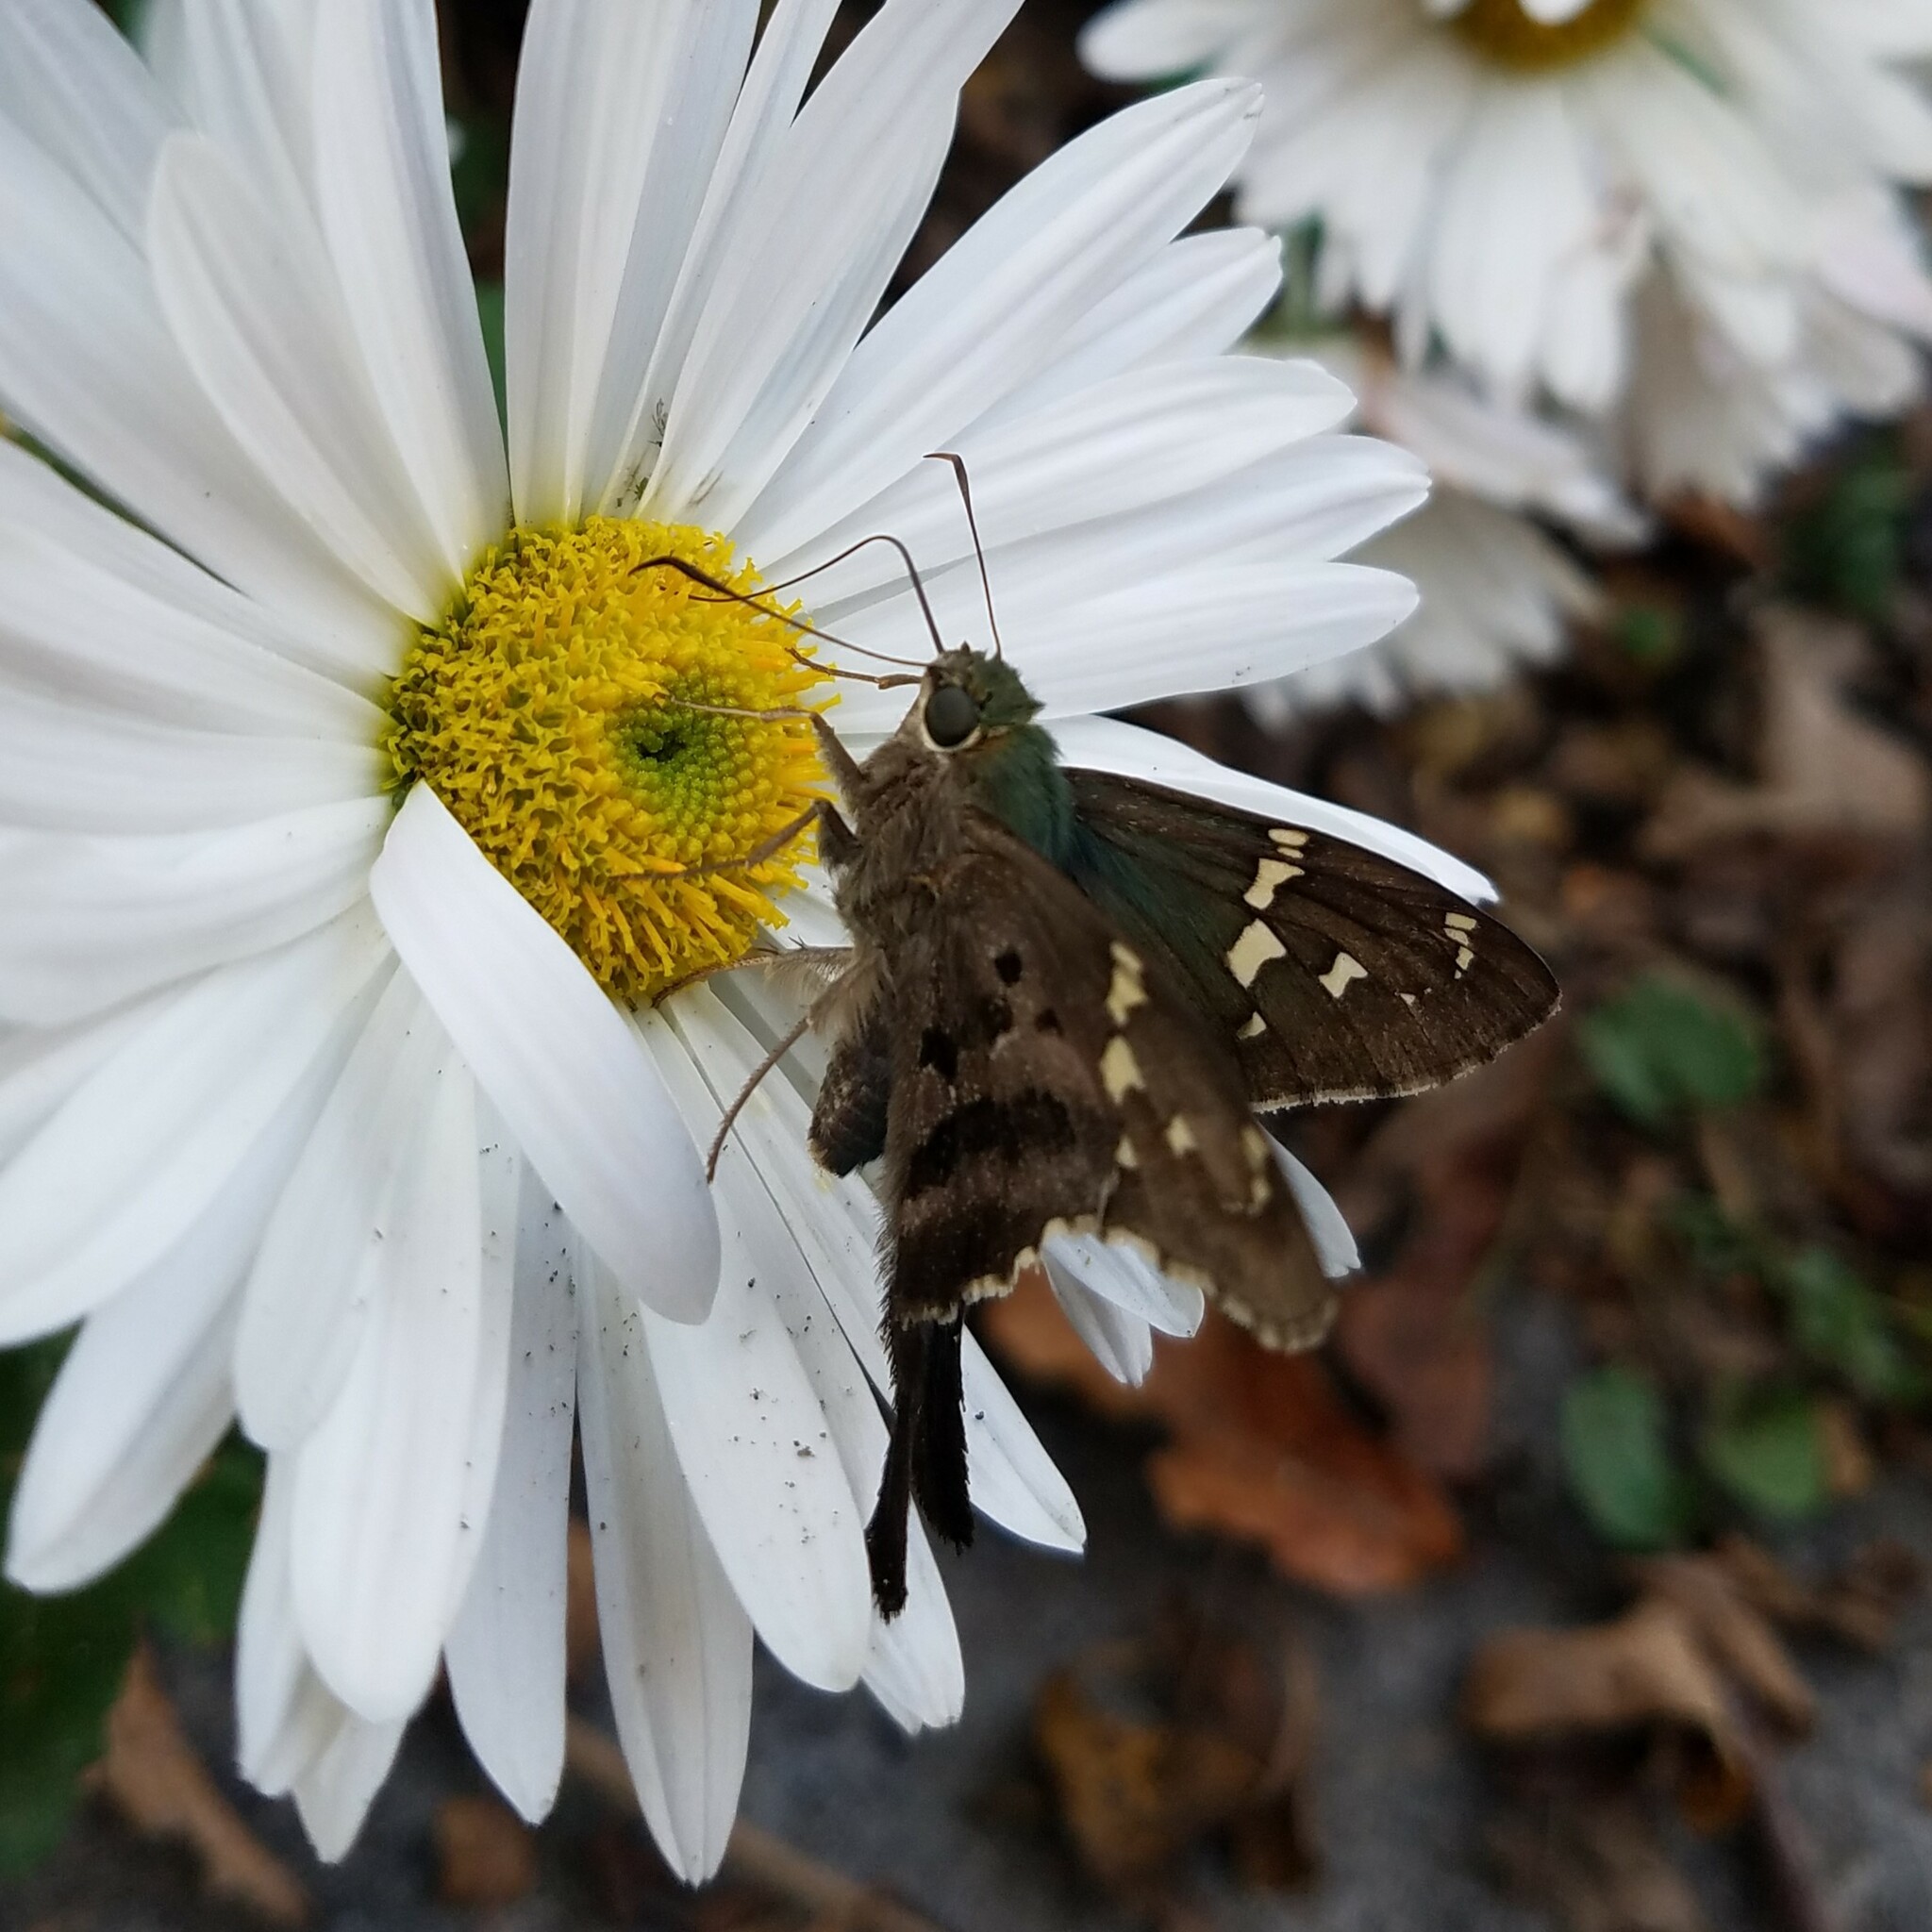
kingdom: Animalia
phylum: Arthropoda
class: Insecta
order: Lepidoptera
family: Hesperiidae
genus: Urbanus
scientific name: Urbanus proteus
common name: Long-tailed skipper
